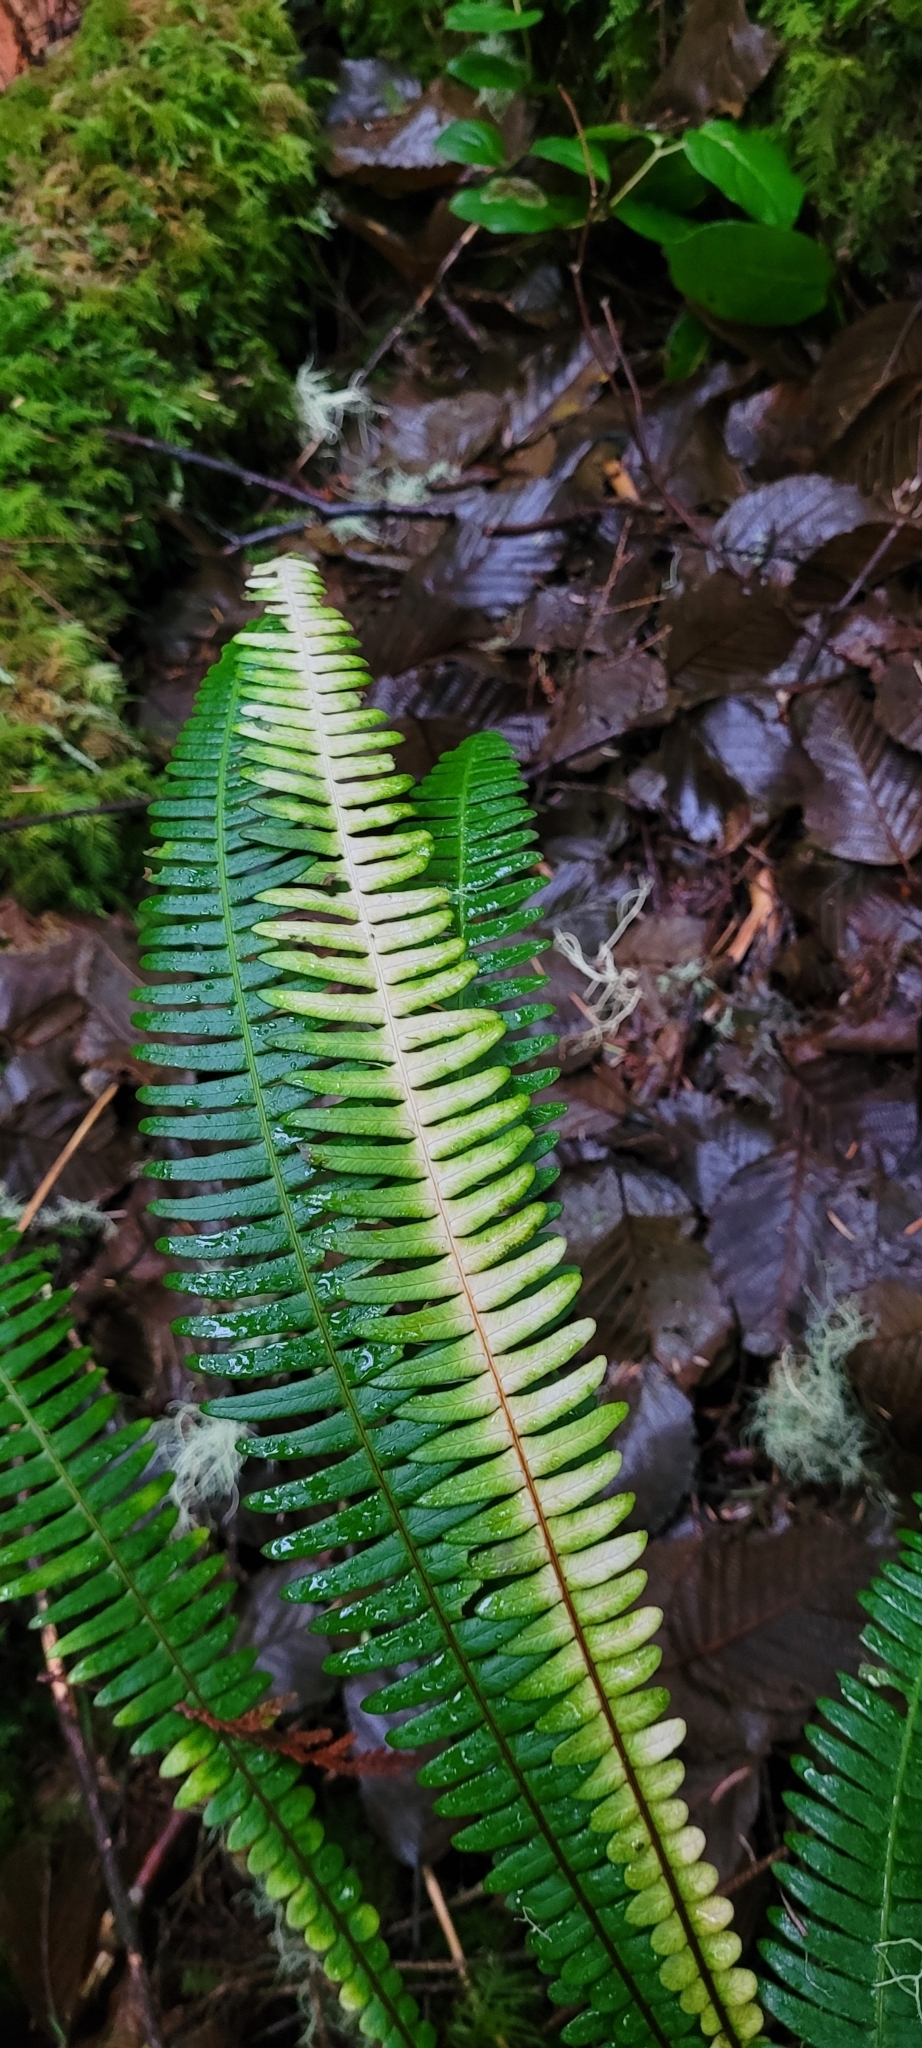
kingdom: Plantae
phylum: Tracheophyta
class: Polypodiopsida
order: Polypodiales
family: Blechnaceae
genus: Struthiopteris
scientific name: Struthiopteris spicant
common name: Deer fern
